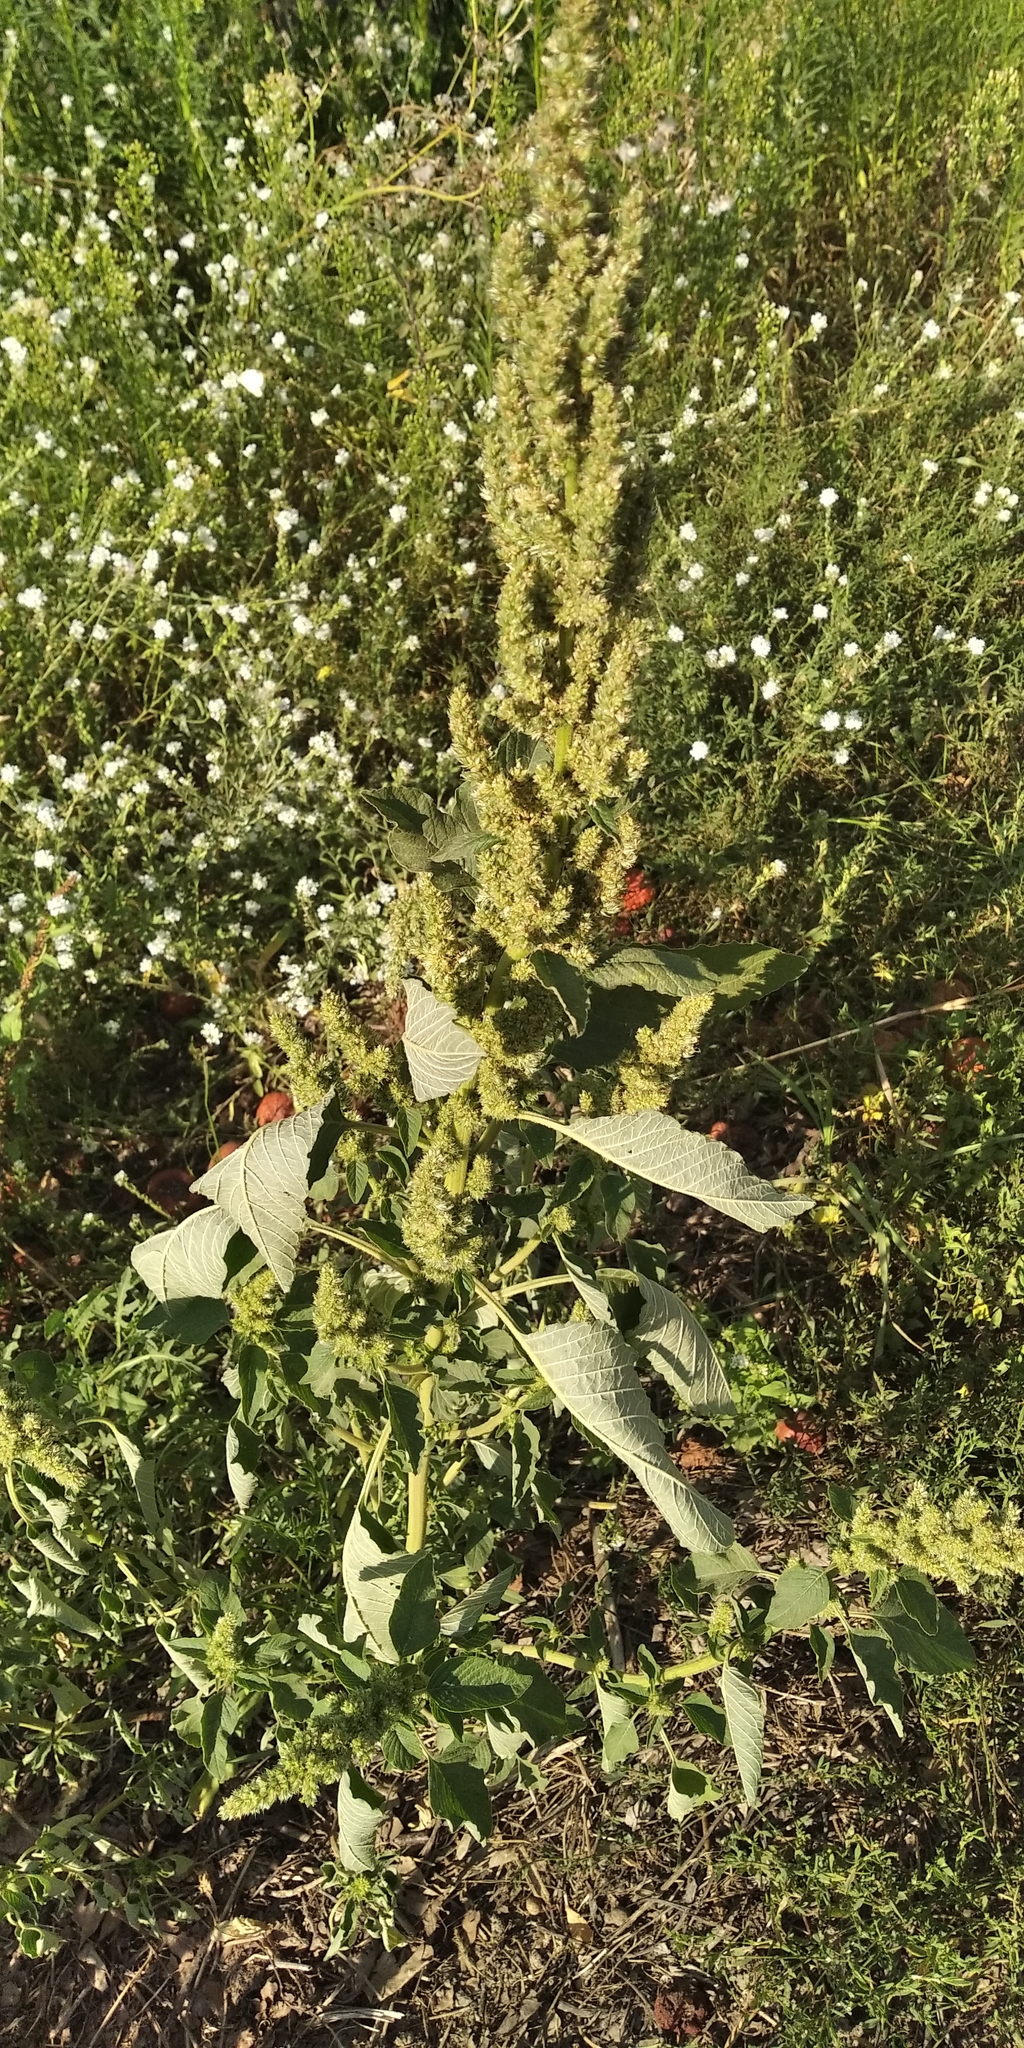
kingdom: Plantae
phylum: Tracheophyta
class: Magnoliopsida
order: Caryophyllales
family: Amaranthaceae
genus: Amaranthus
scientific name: Amaranthus retroflexus
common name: Redroot amaranth
